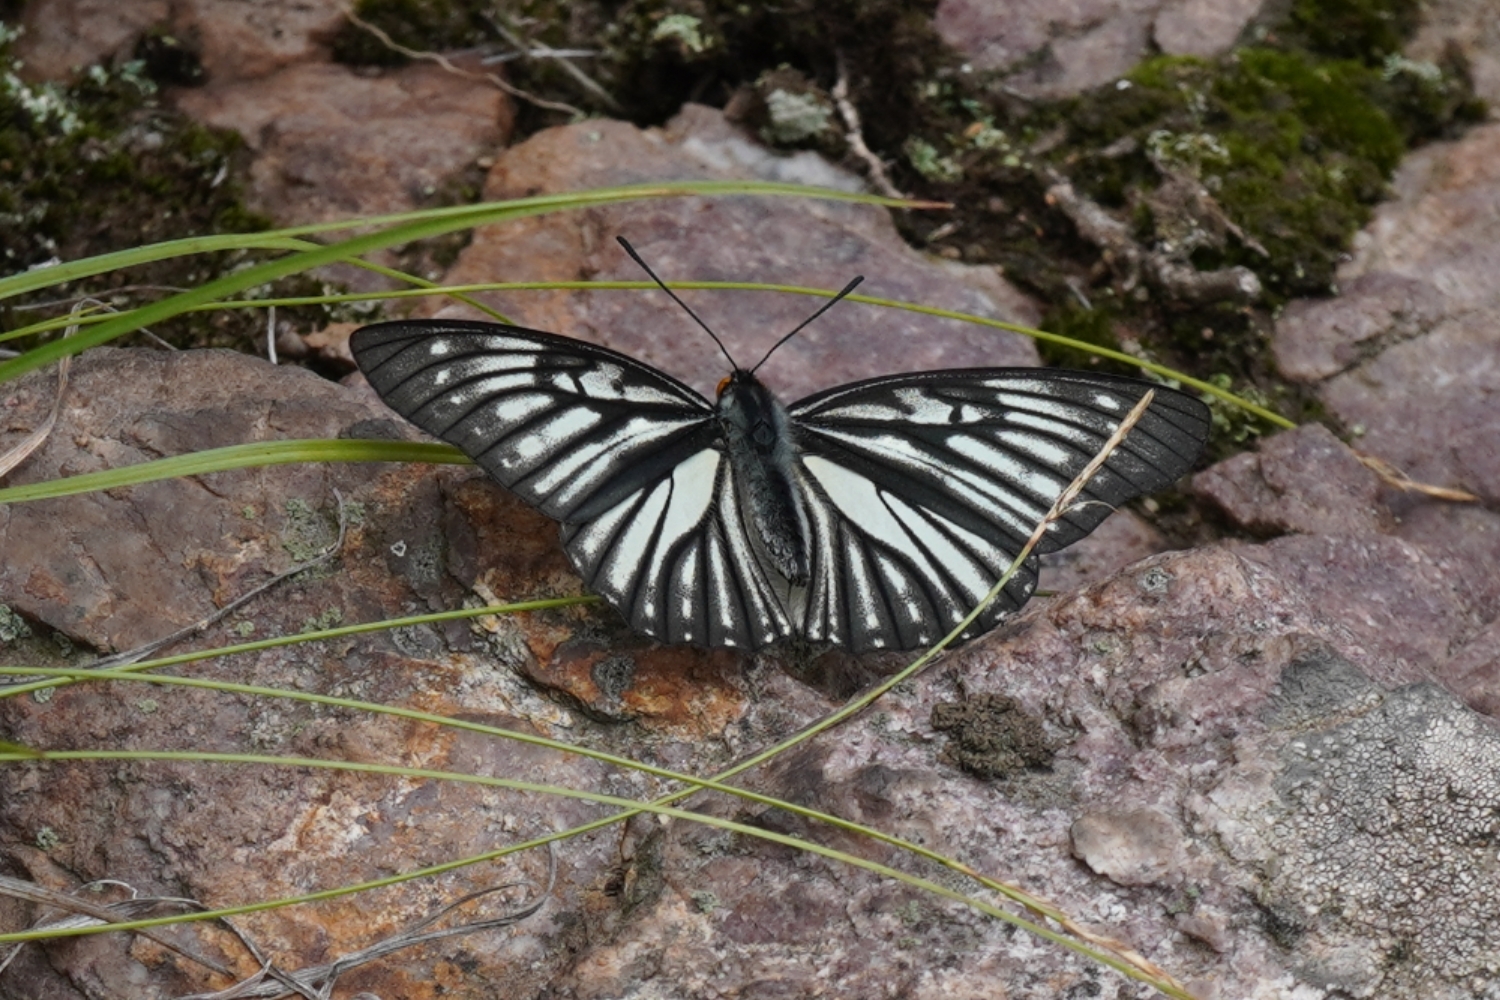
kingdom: Animalia
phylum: Arthropoda
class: Insecta
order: Lepidoptera
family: Nymphalidae
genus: Hestina
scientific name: Hestina persimilis
